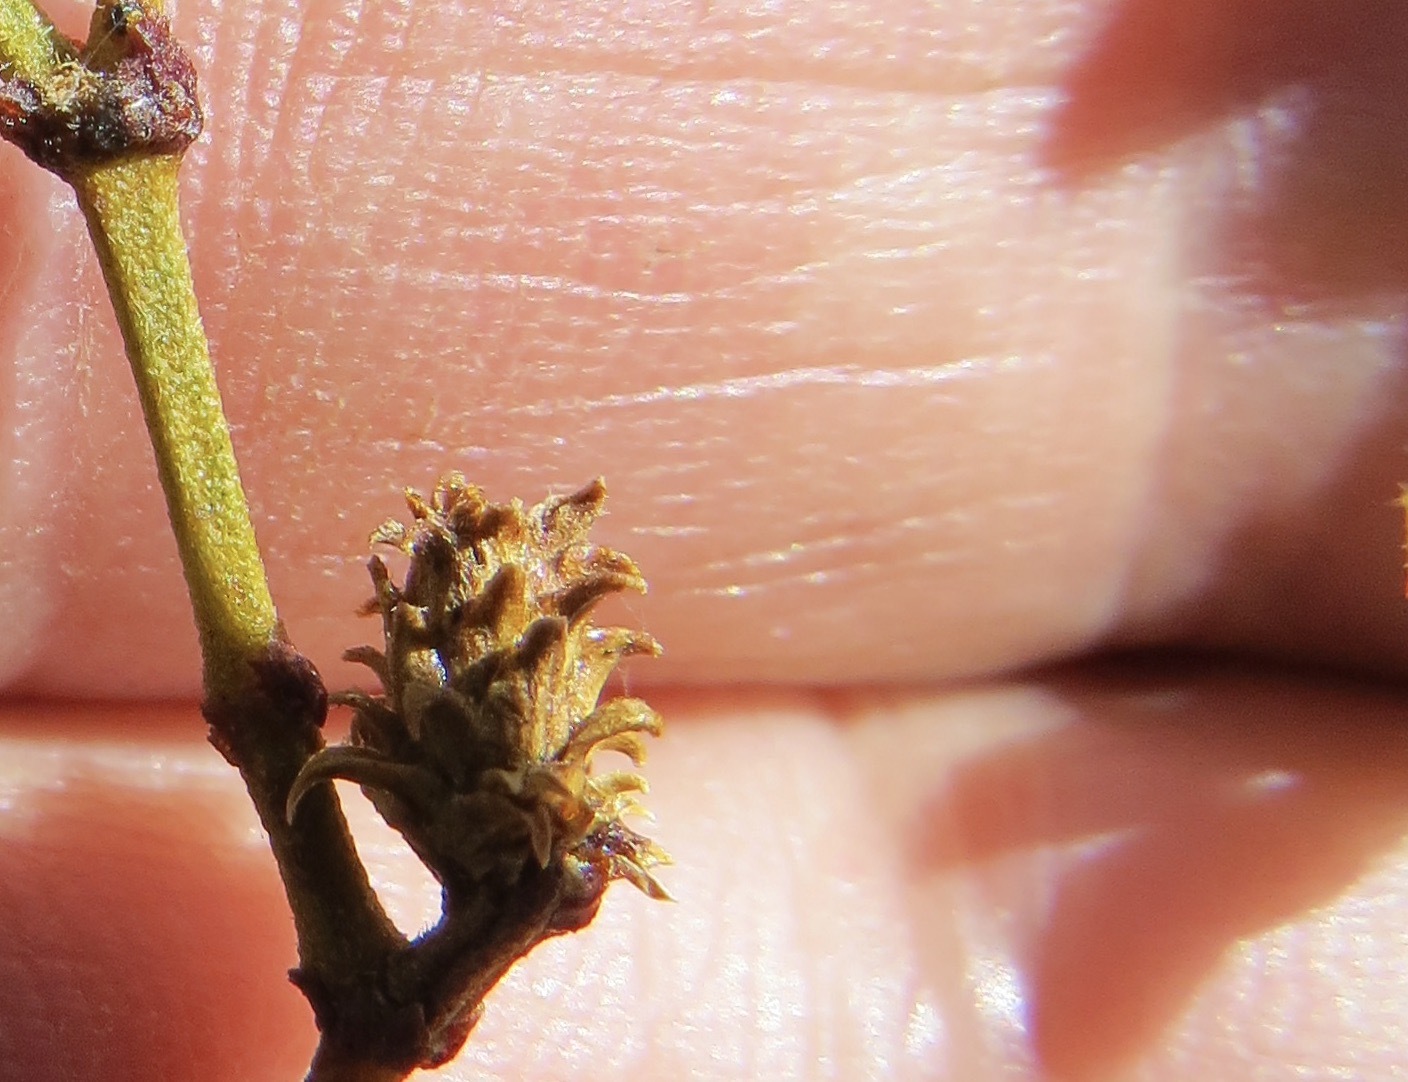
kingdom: Animalia
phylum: Arthropoda
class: Insecta
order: Diptera
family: Cecidomyiidae
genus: Asphondylia
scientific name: Asphondylia rosetta
